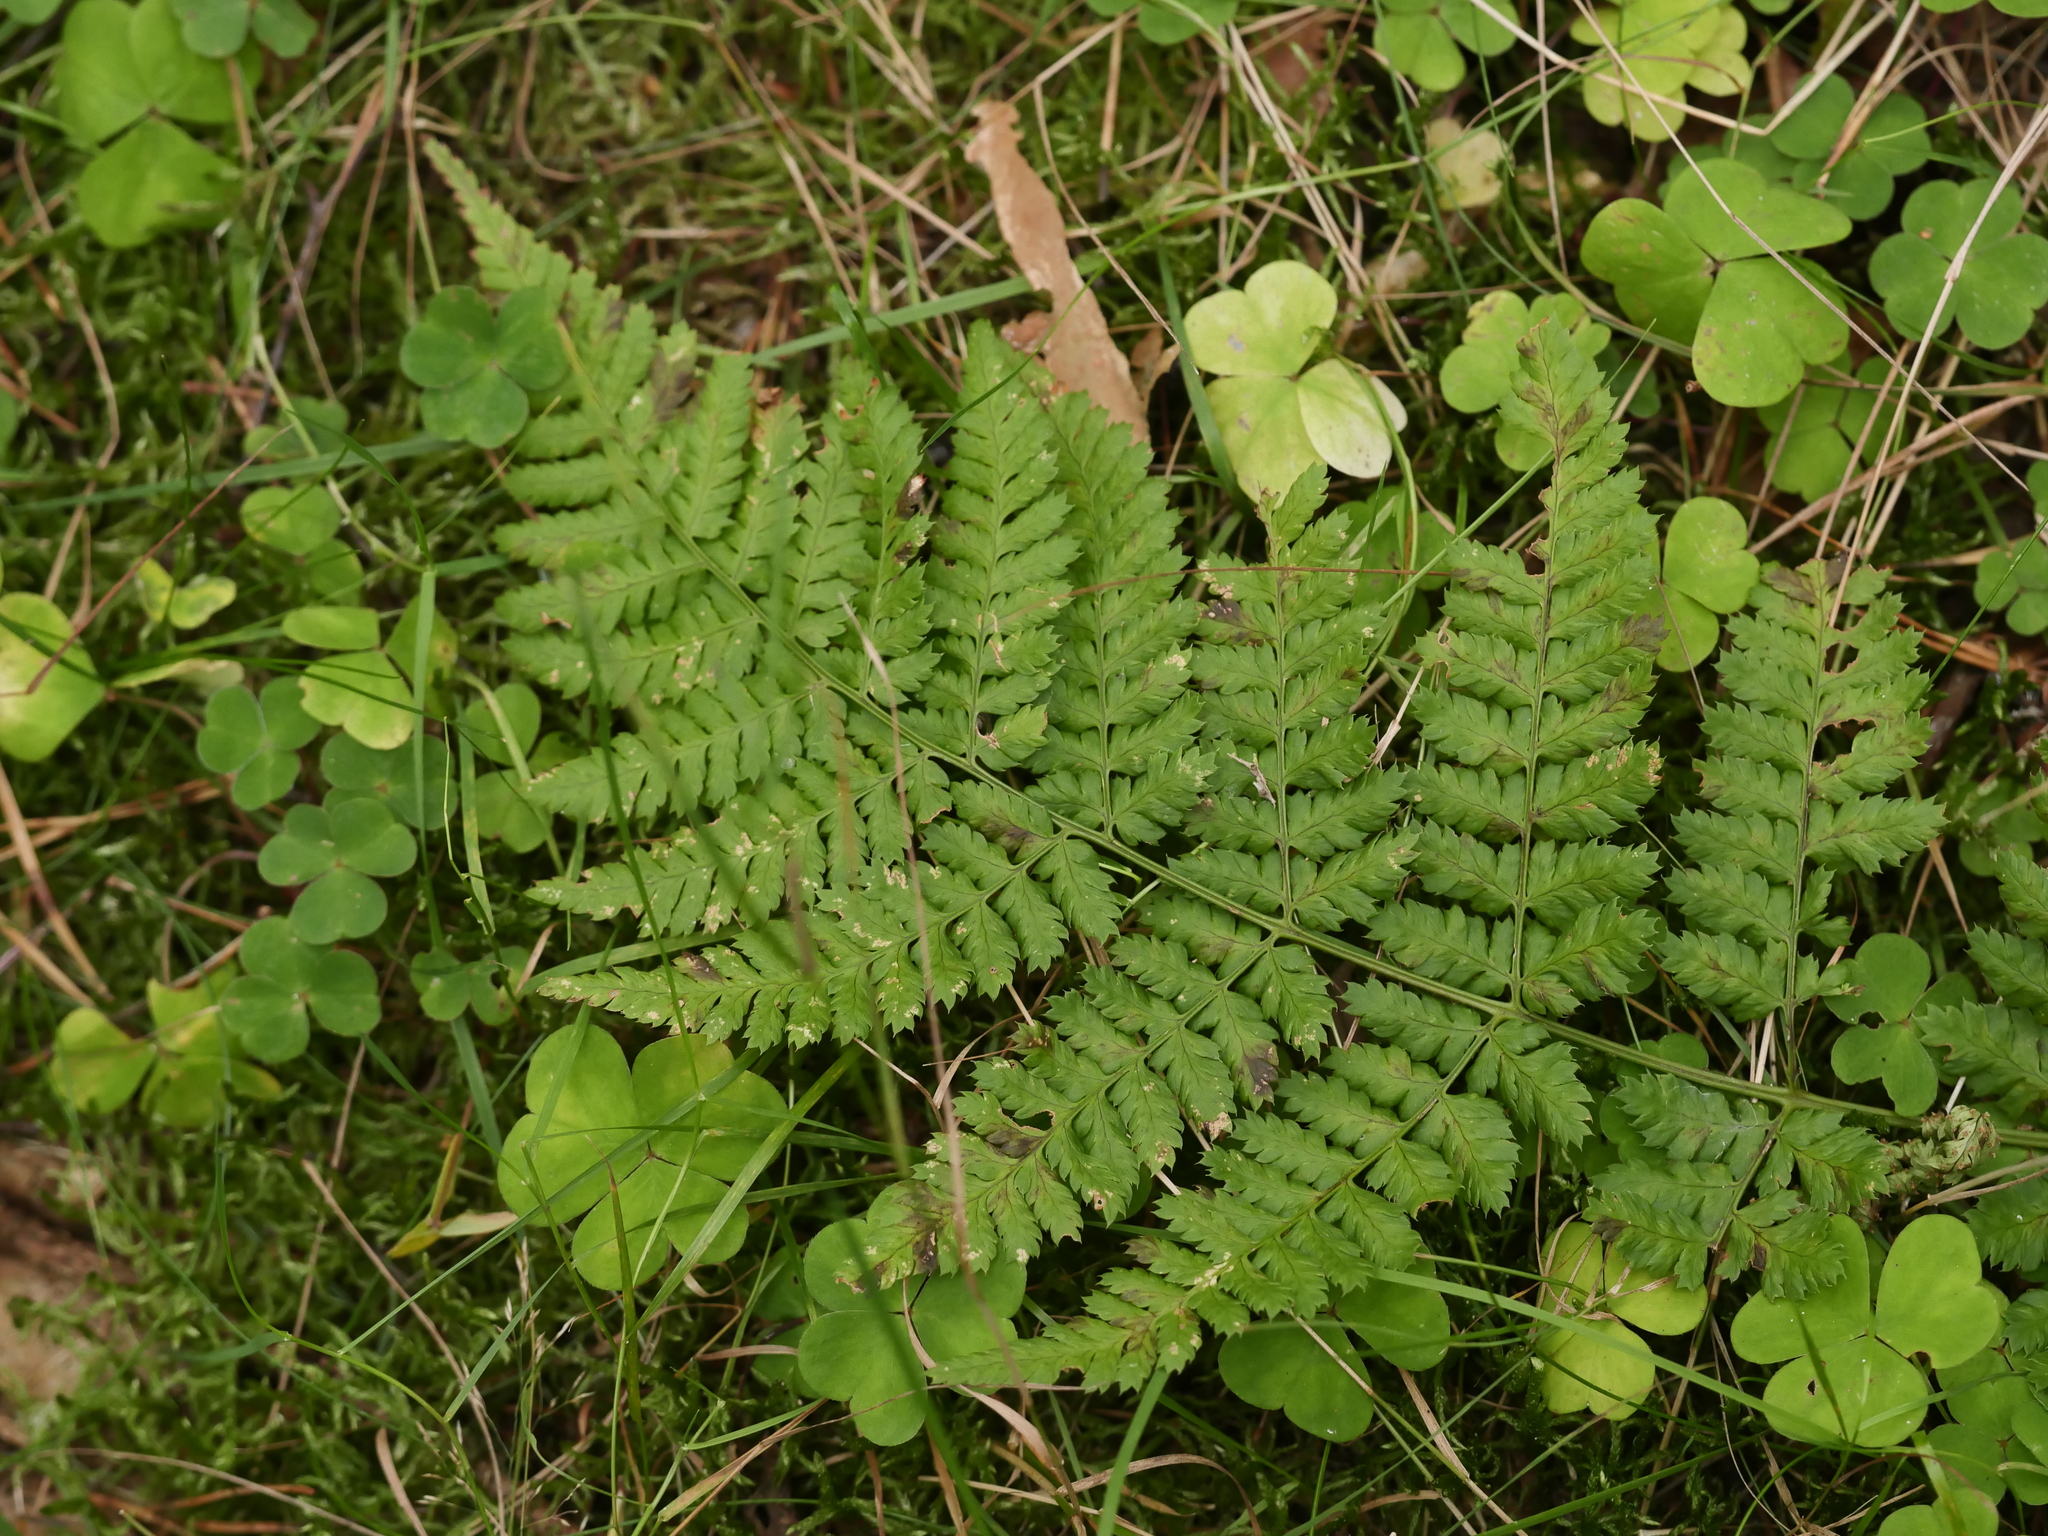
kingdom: Plantae
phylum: Tracheophyta
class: Polypodiopsida
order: Polypodiales
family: Dryopteridaceae
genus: Dryopteris
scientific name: Dryopteris dilatata
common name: Broad buckler-fern
